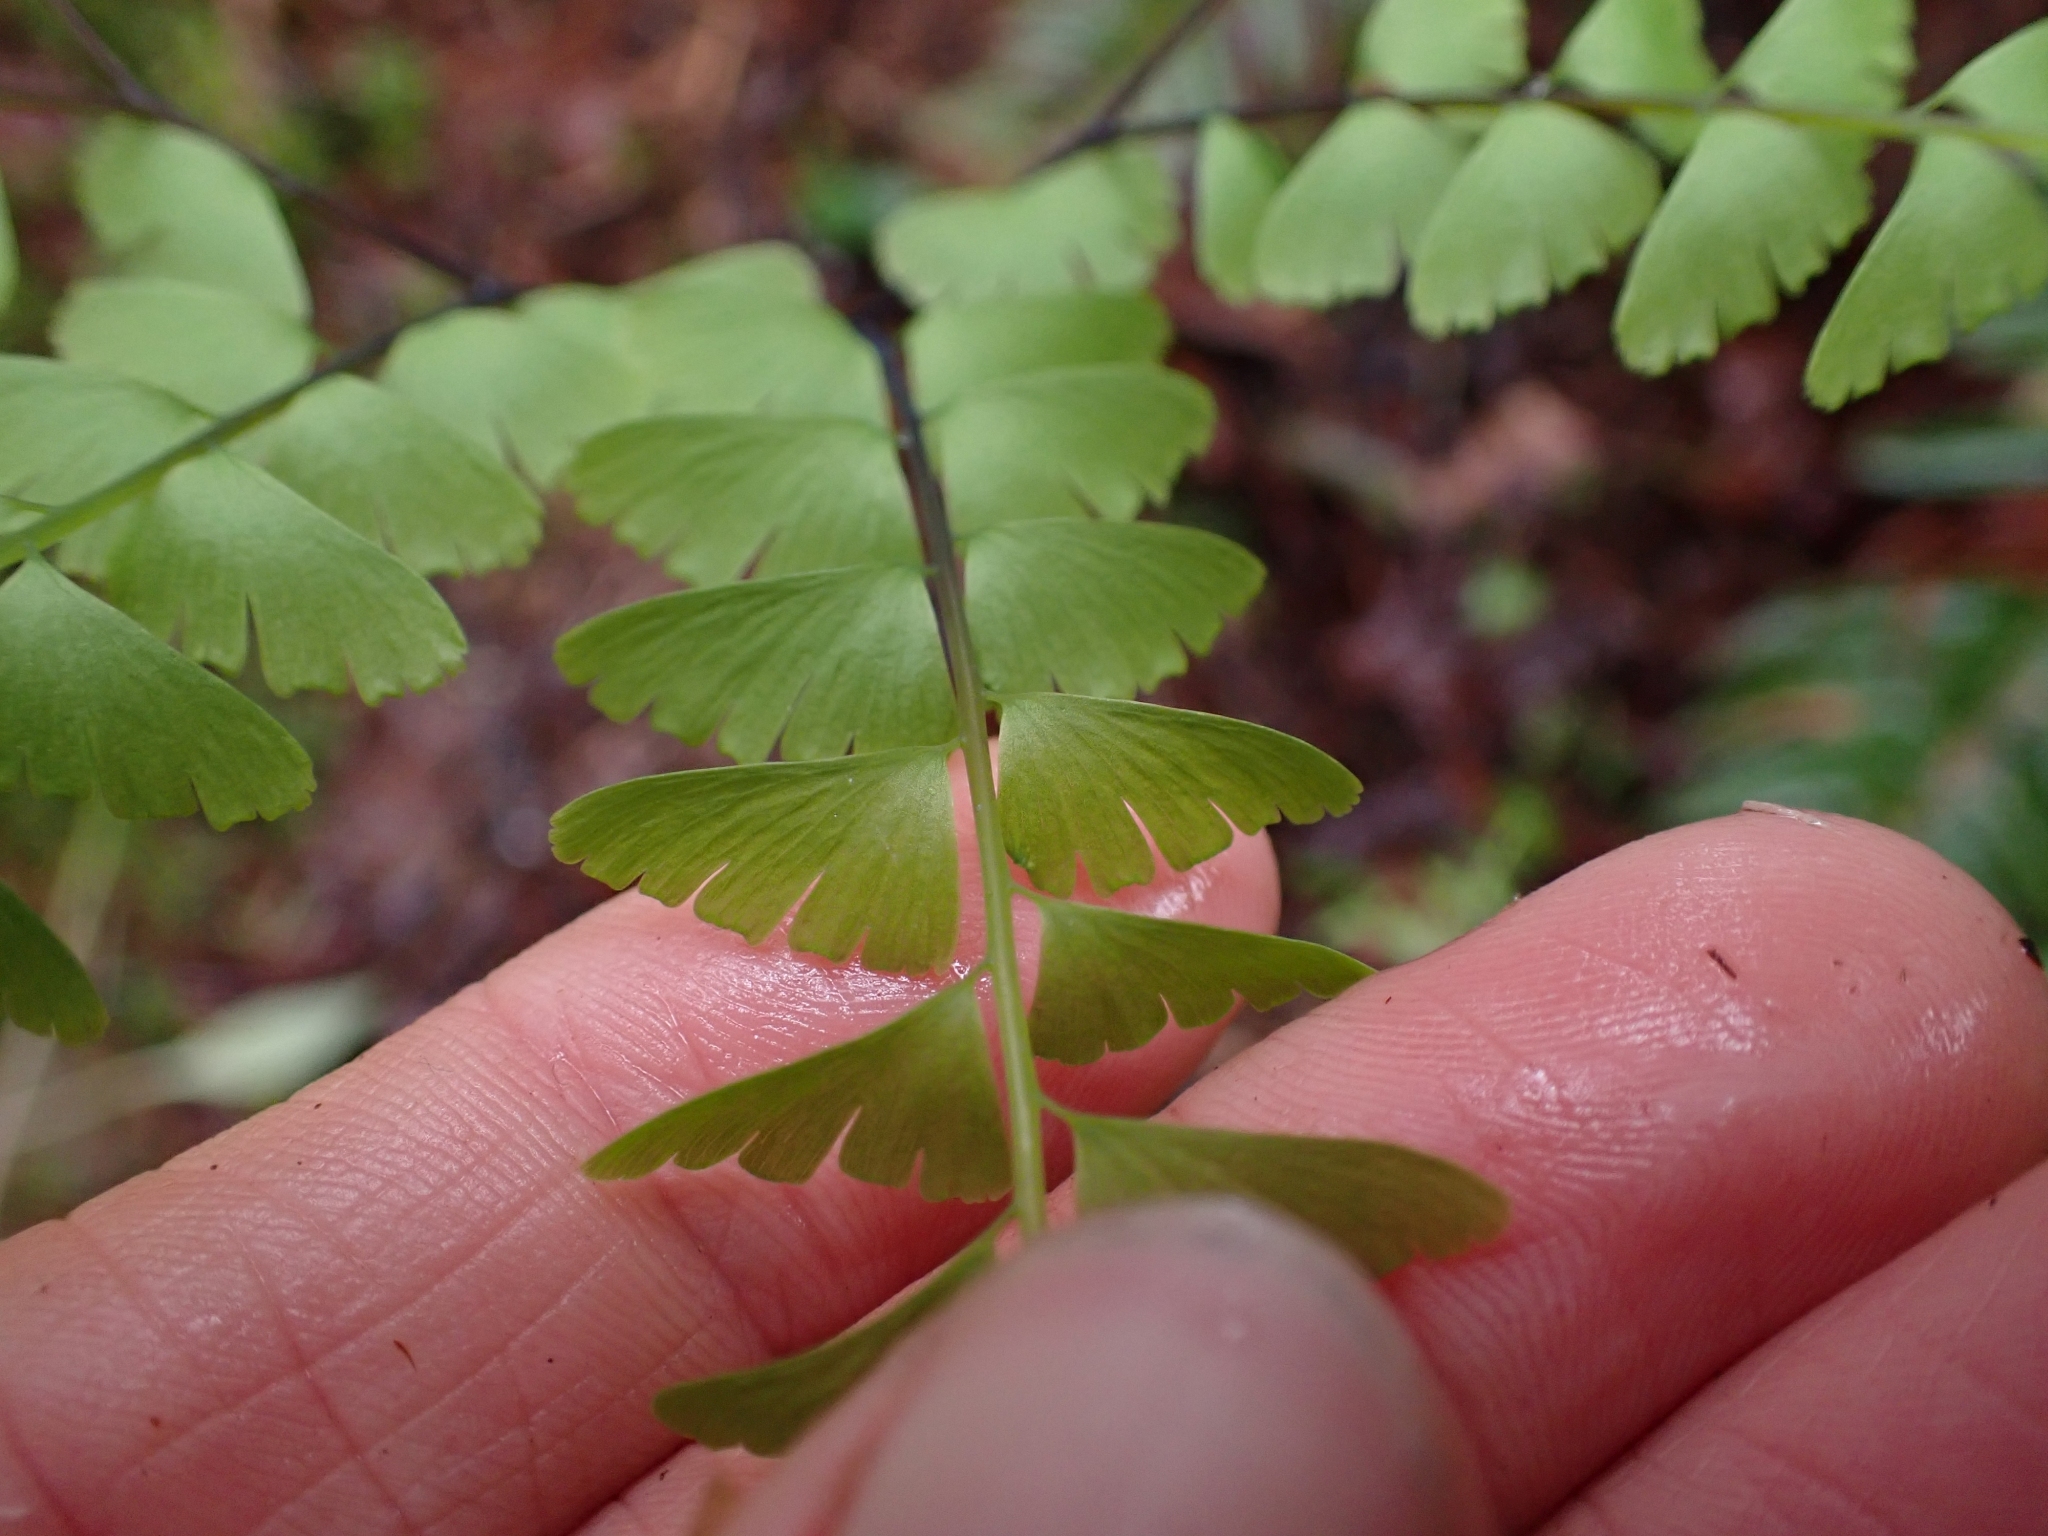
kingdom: Plantae
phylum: Tracheophyta
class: Polypodiopsida
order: Polypodiales
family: Pteridaceae
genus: Adiantum
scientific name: Adiantum aleuticum
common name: Aleutian maidenhair fern
